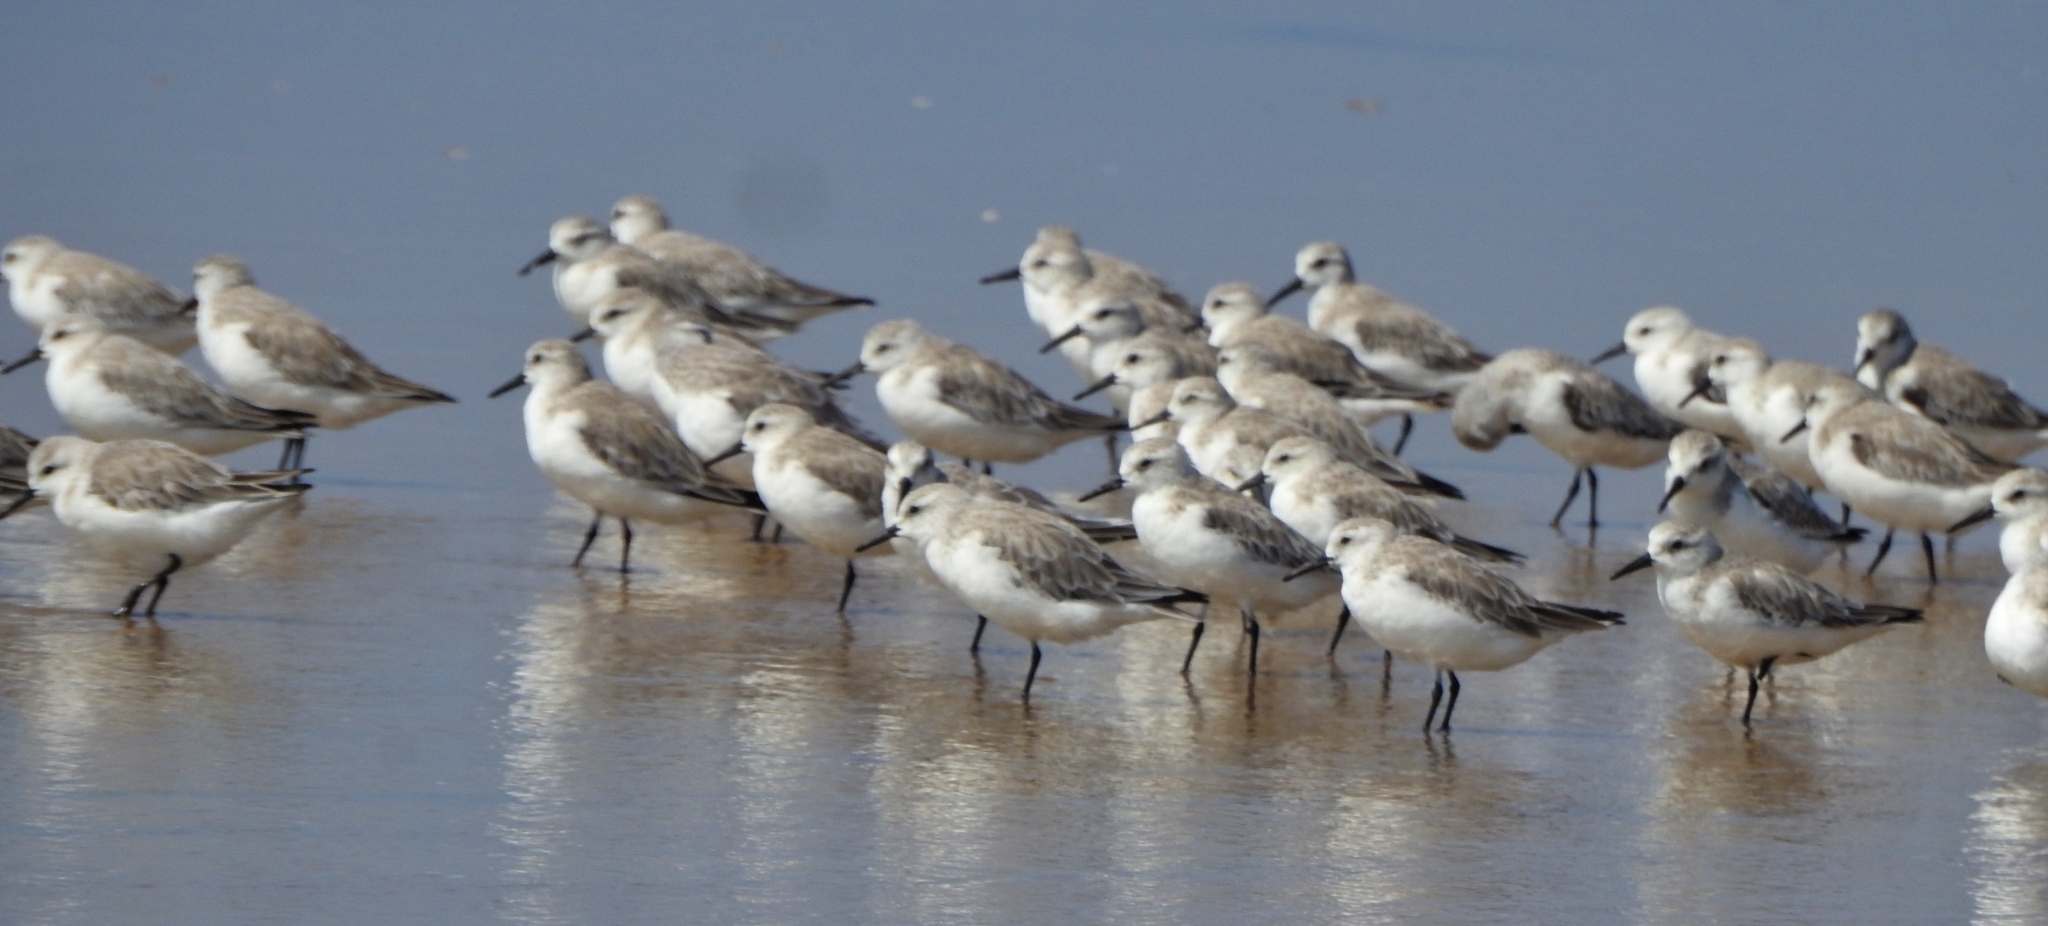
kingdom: Animalia
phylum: Chordata
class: Aves
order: Charadriiformes
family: Scolopacidae
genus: Calidris
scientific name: Calidris alba
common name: Sanderling
